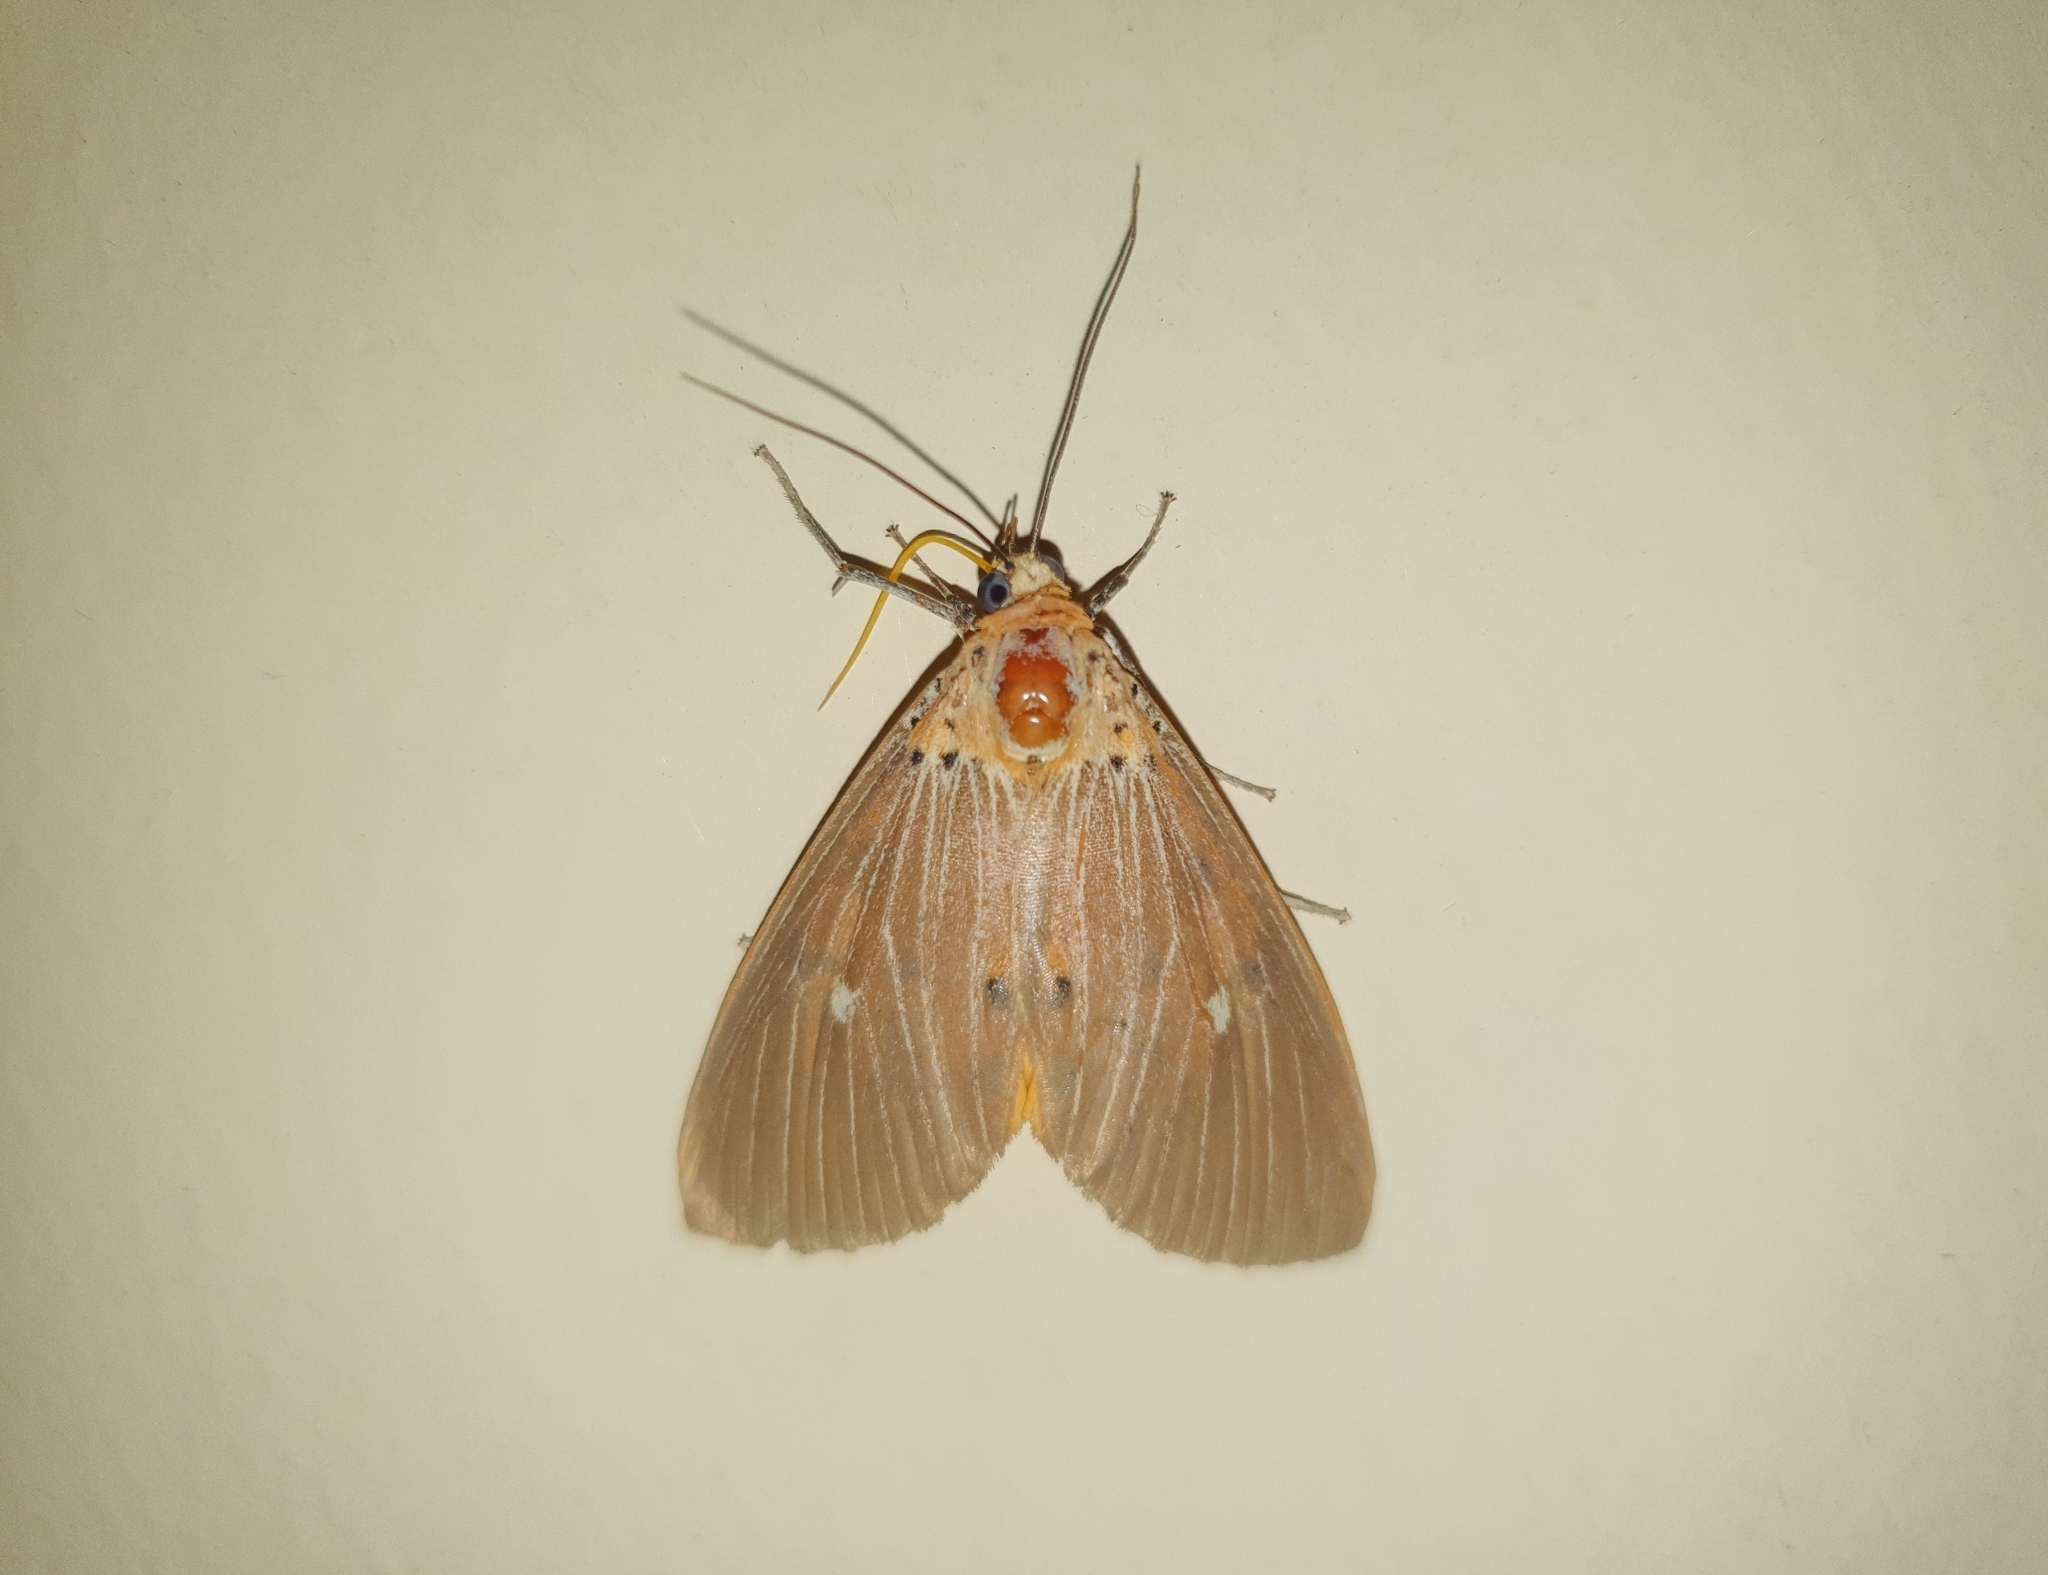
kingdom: Animalia
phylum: Arthropoda
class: Insecta
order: Lepidoptera
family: Erebidae
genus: Asota
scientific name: Asota caricae
